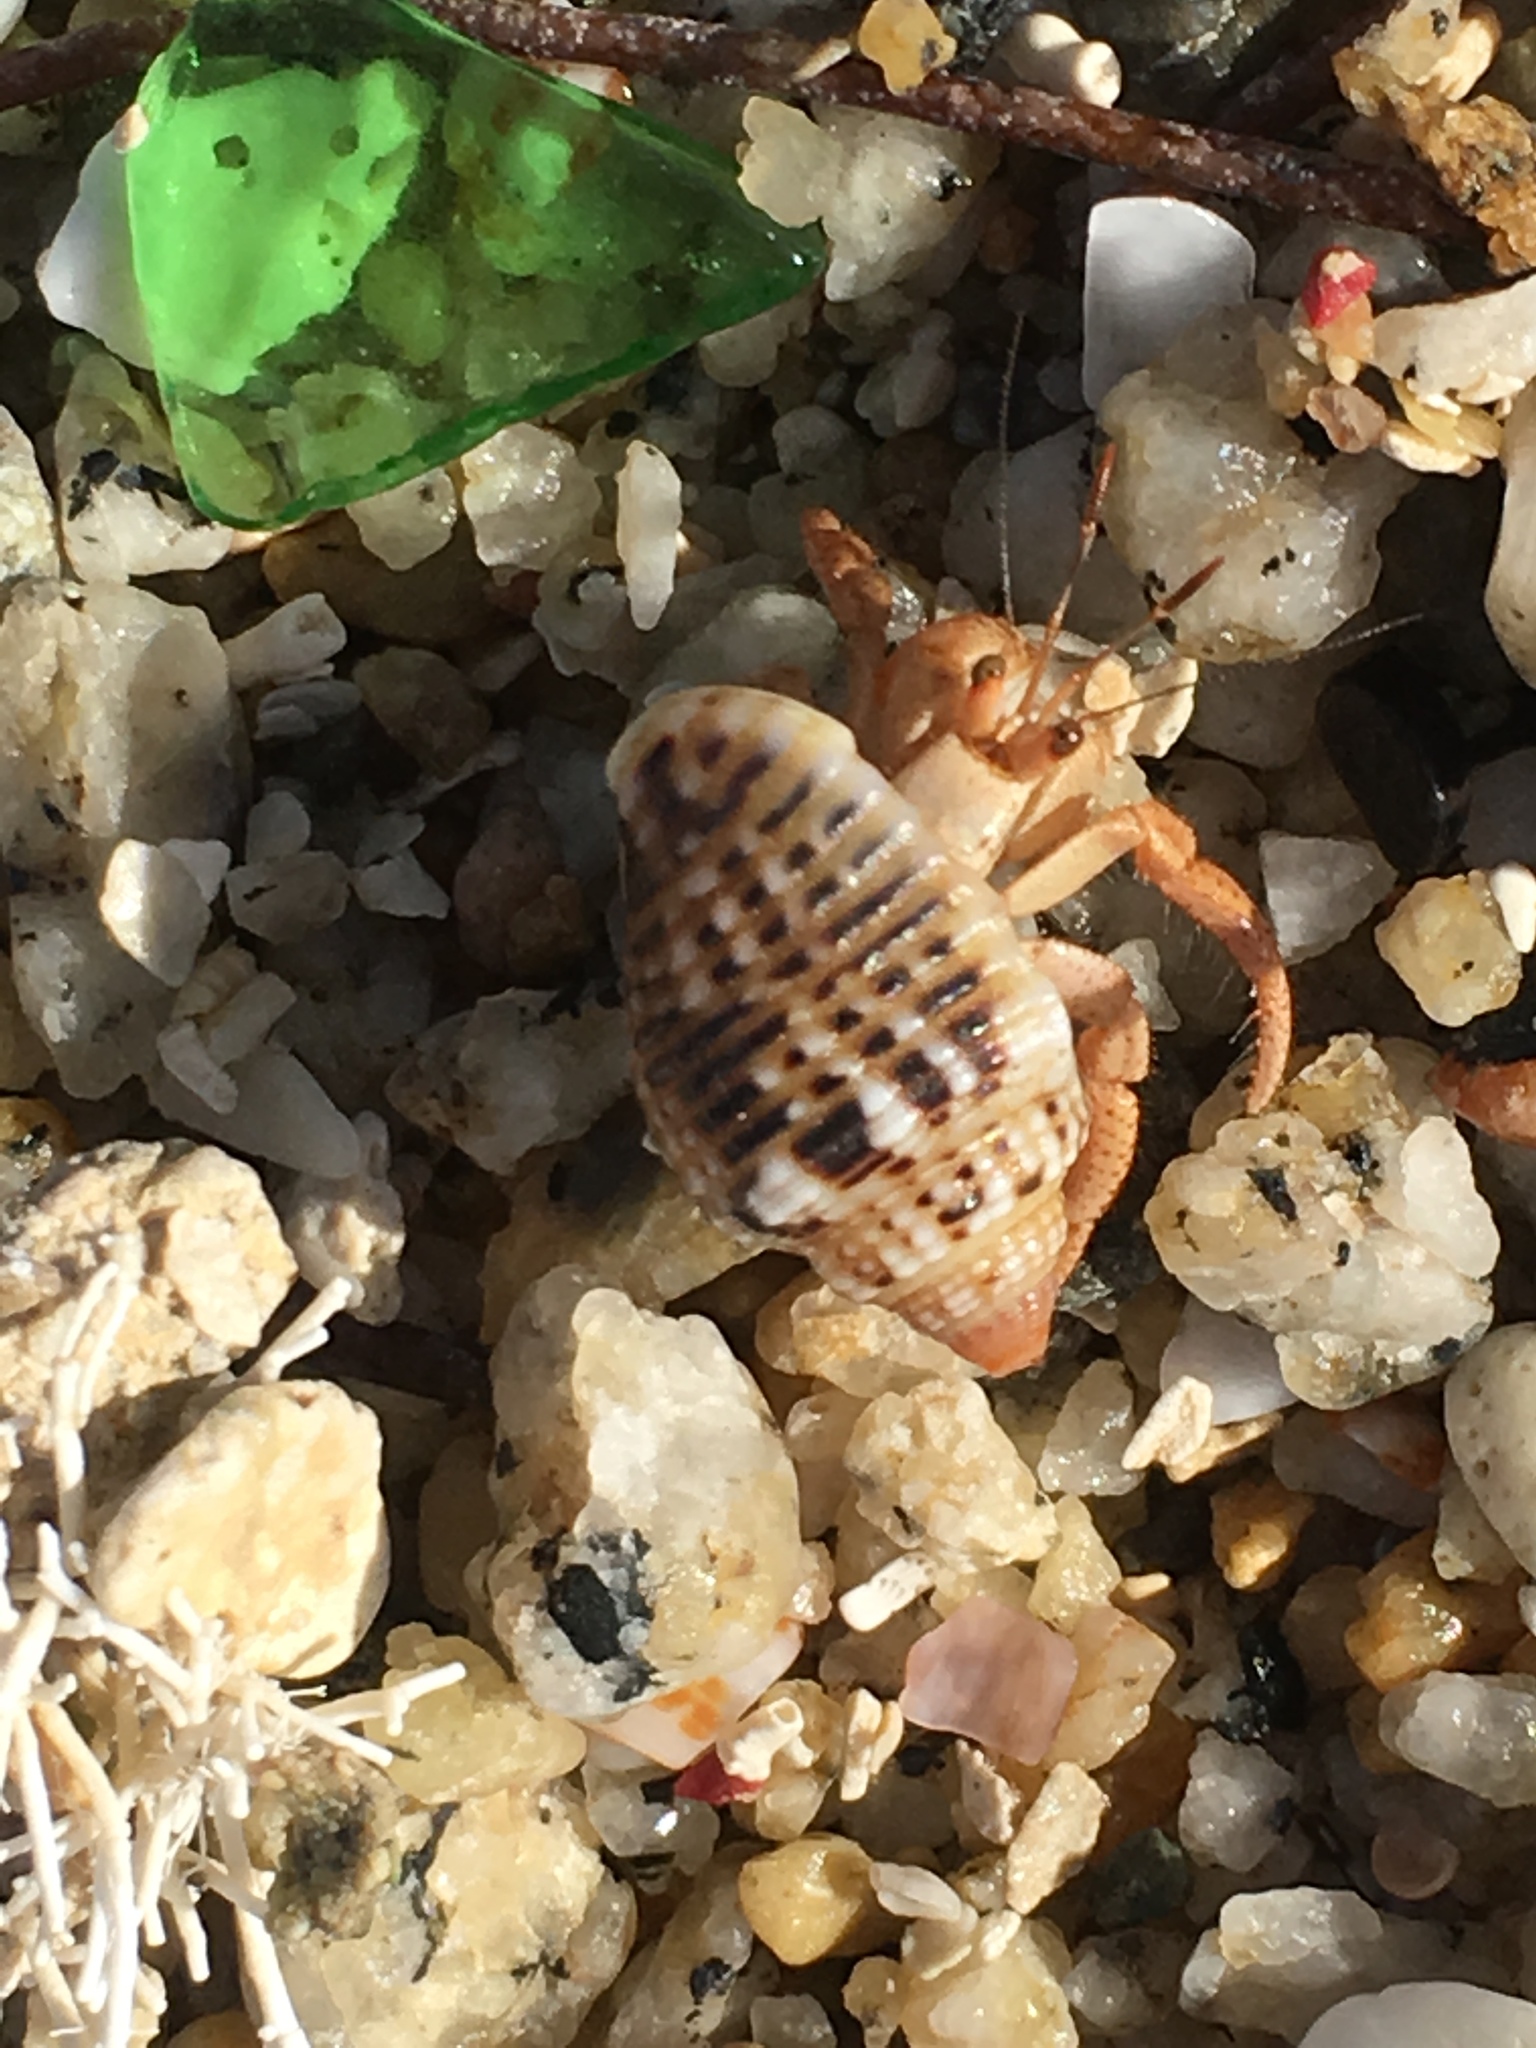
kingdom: Animalia
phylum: Arthropoda
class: Malacostraca
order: Decapoda
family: Coenobitidae
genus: Coenobita
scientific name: Coenobita clypeatus
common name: Caribbean hermit crab
